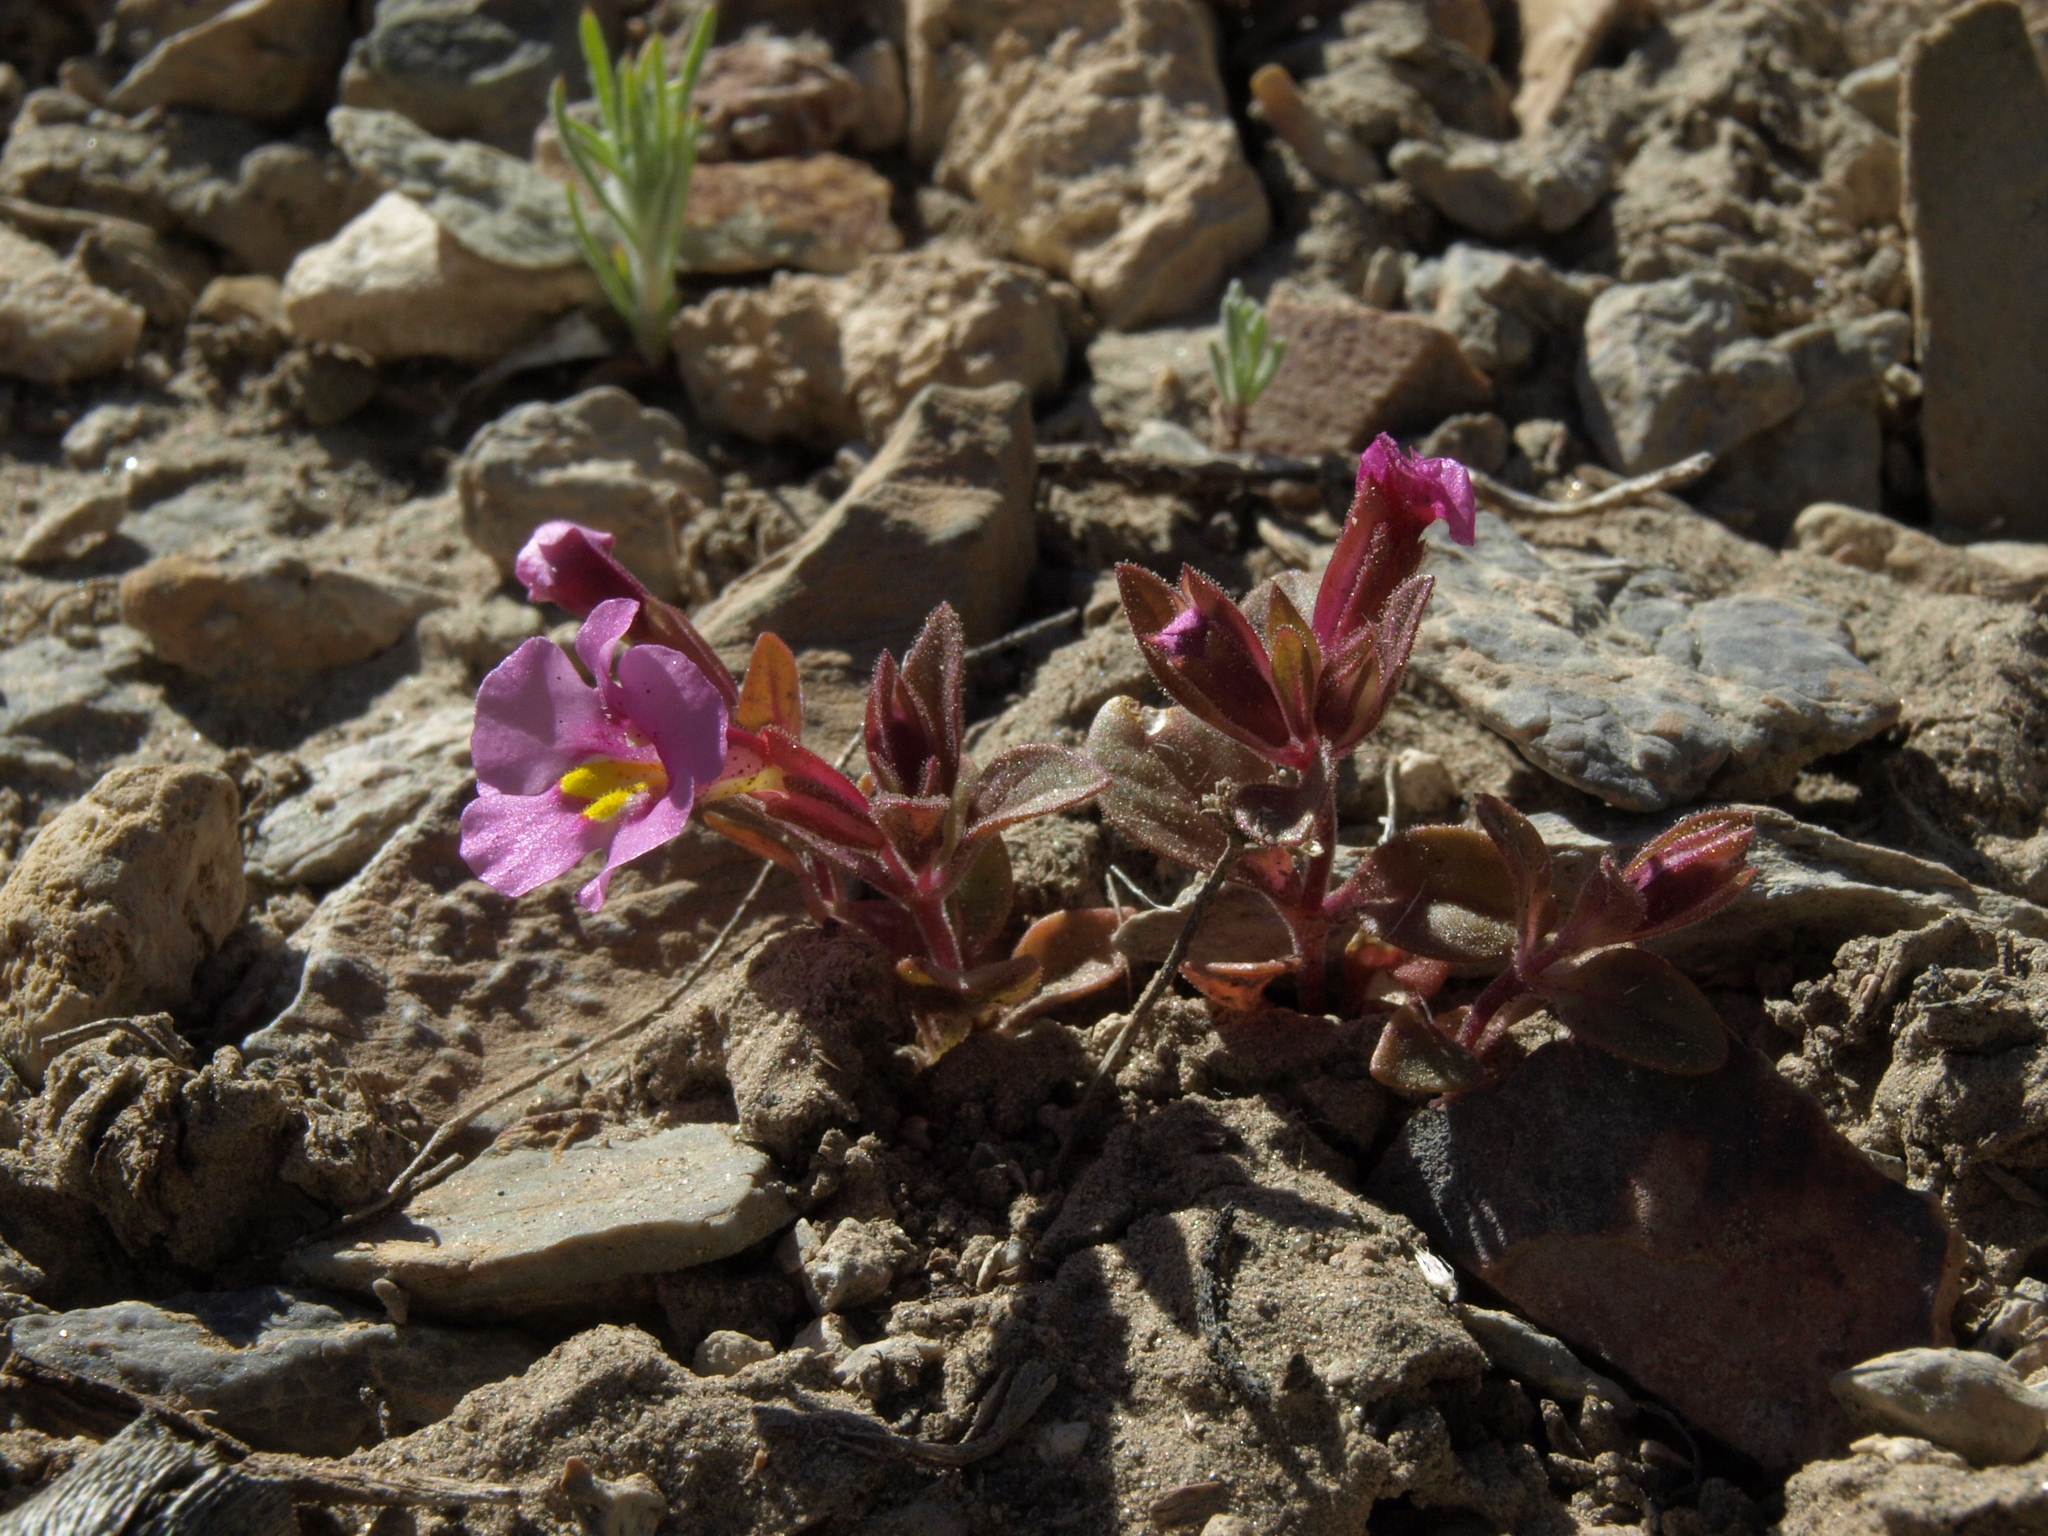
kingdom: Plantae
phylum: Tracheophyta
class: Magnoliopsida
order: Lamiales
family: Phrymaceae
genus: Diplacus
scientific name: Diplacus parryi
